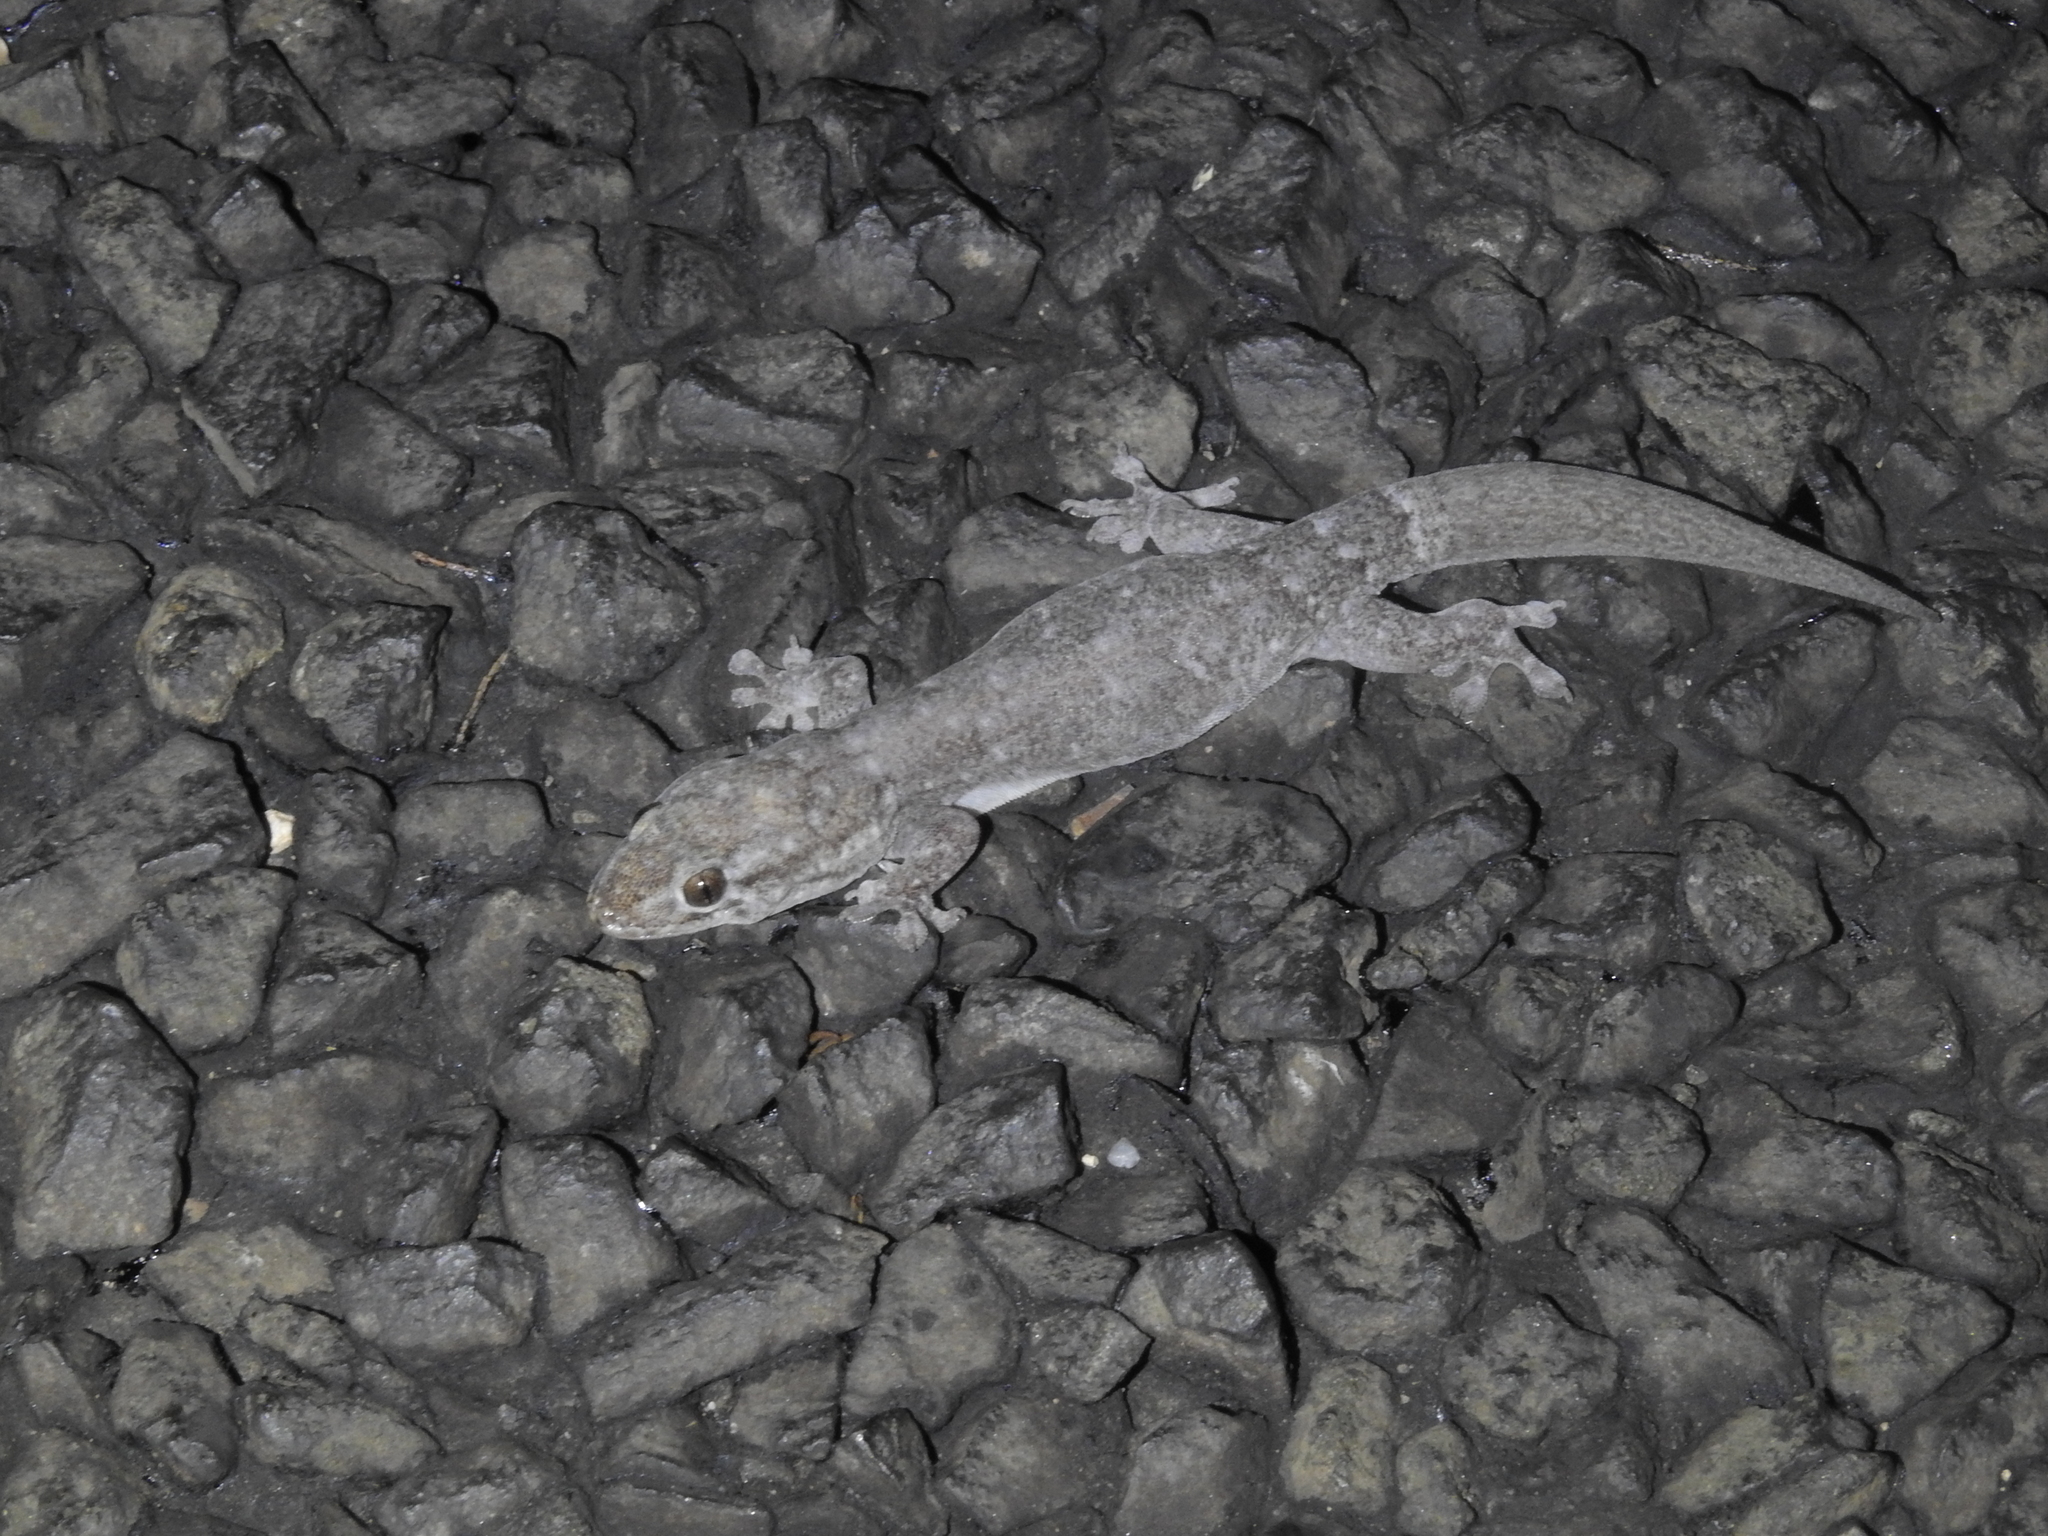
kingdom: Animalia
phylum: Chordata
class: Squamata
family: Gekkonidae
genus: Gehyra
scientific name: Gehyra dubia
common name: Dubious dtella
